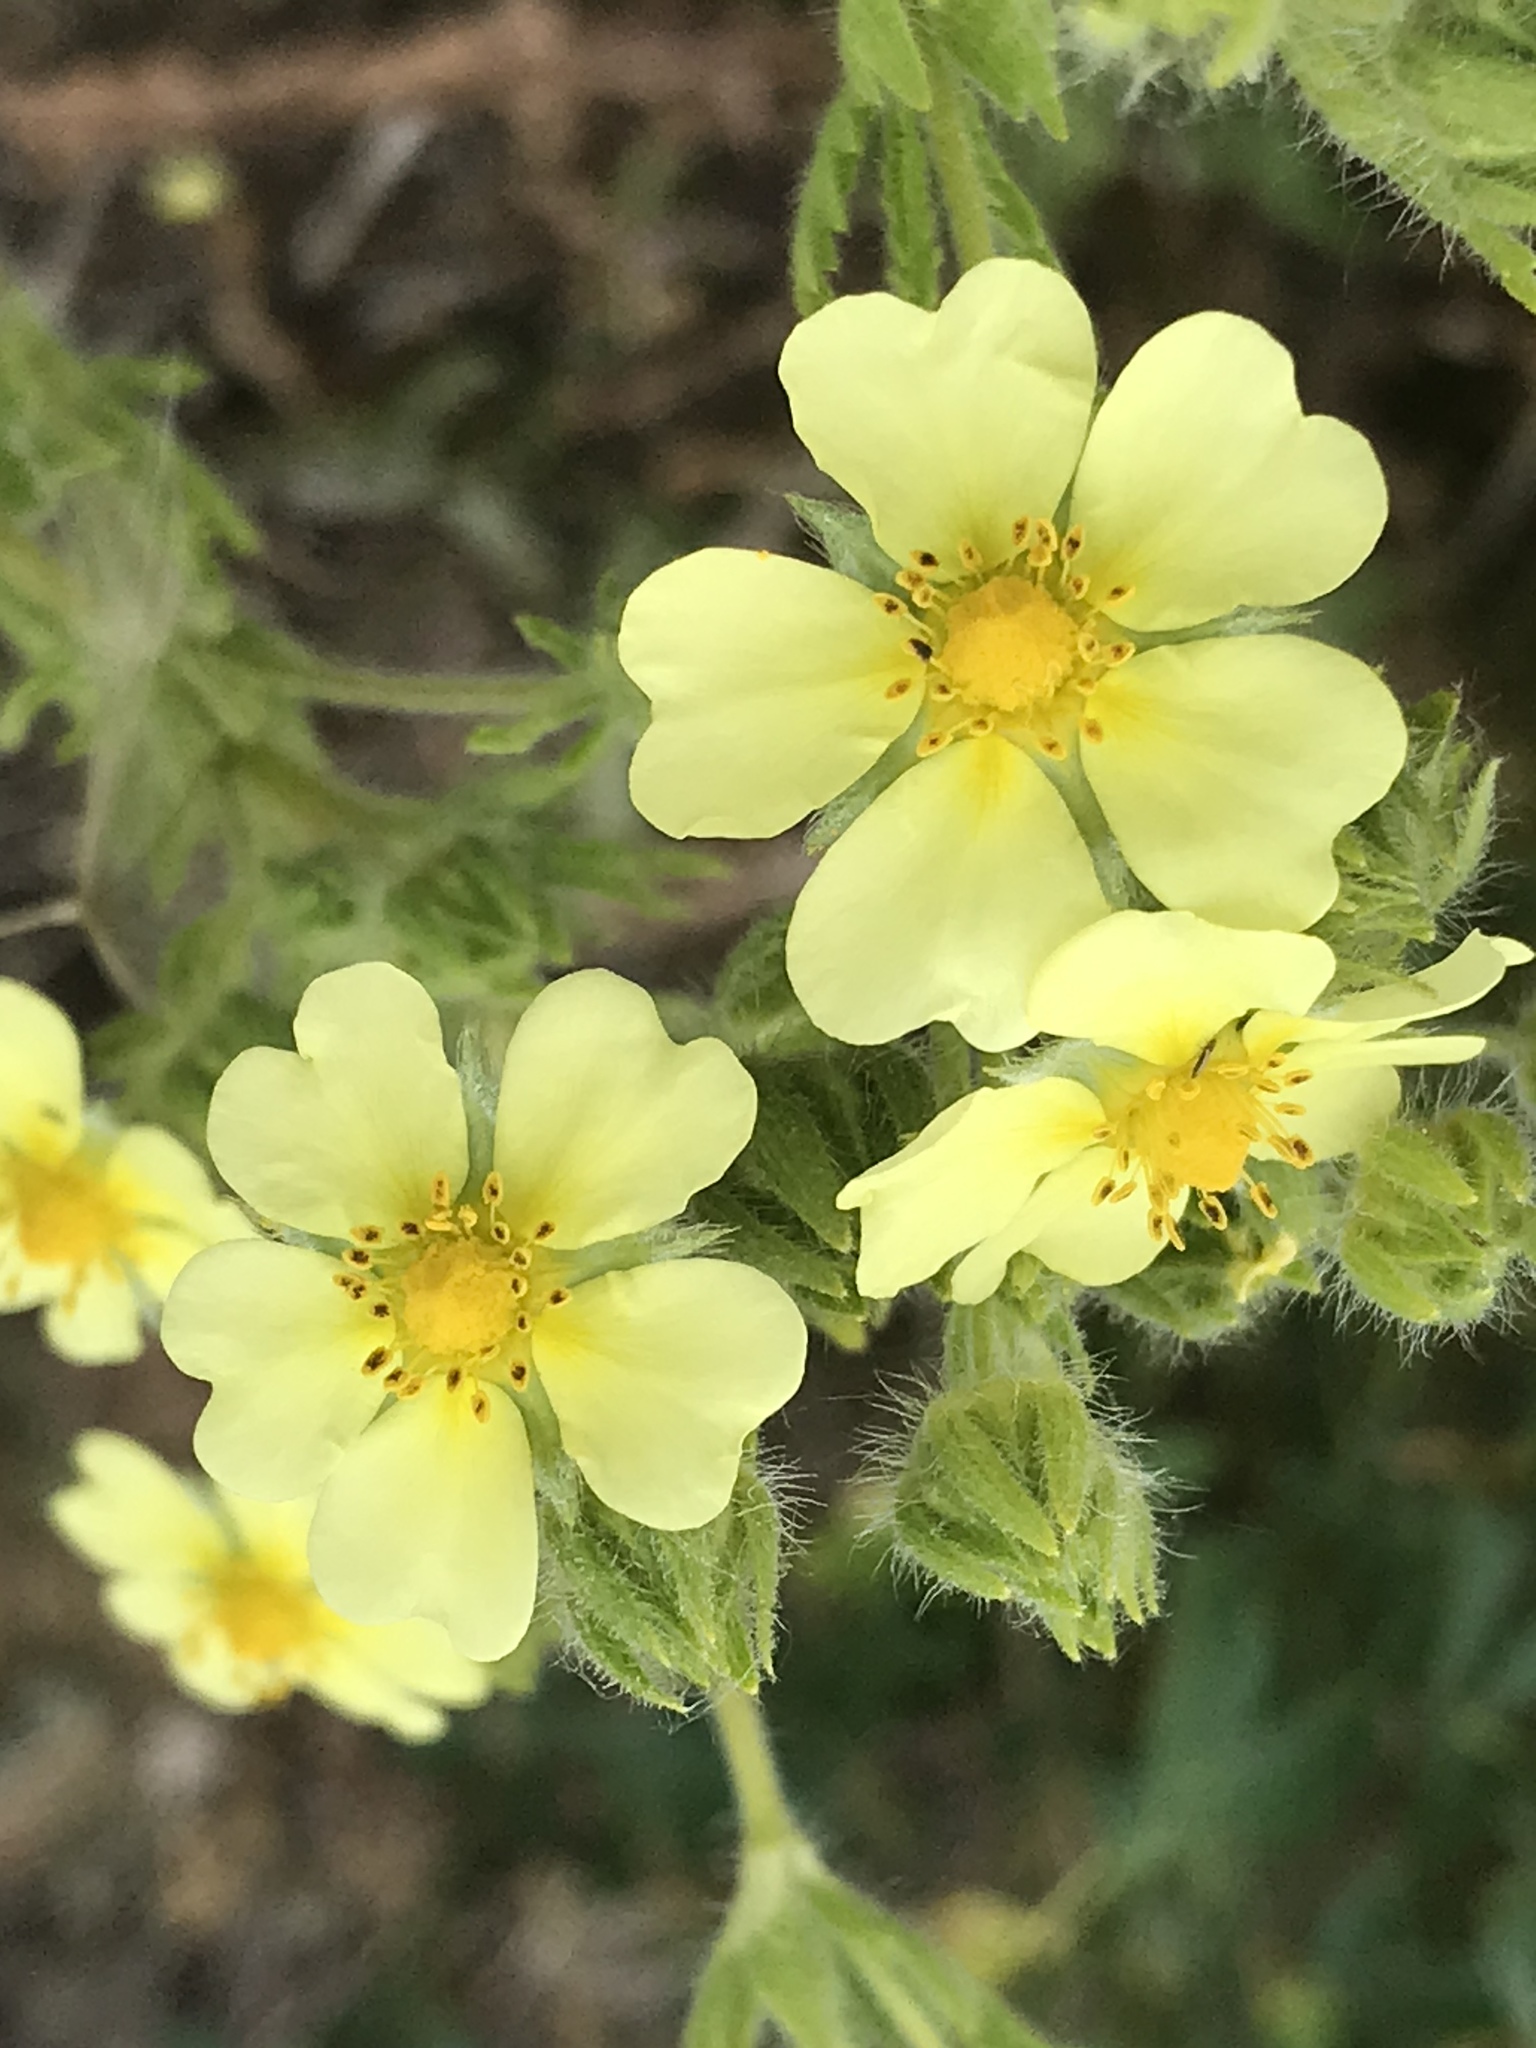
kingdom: Plantae
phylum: Tracheophyta
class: Magnoliopsida
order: Rosales
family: Rosaceae
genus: Potentilla
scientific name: Potentilla recta
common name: Sulphur cinquefoil
